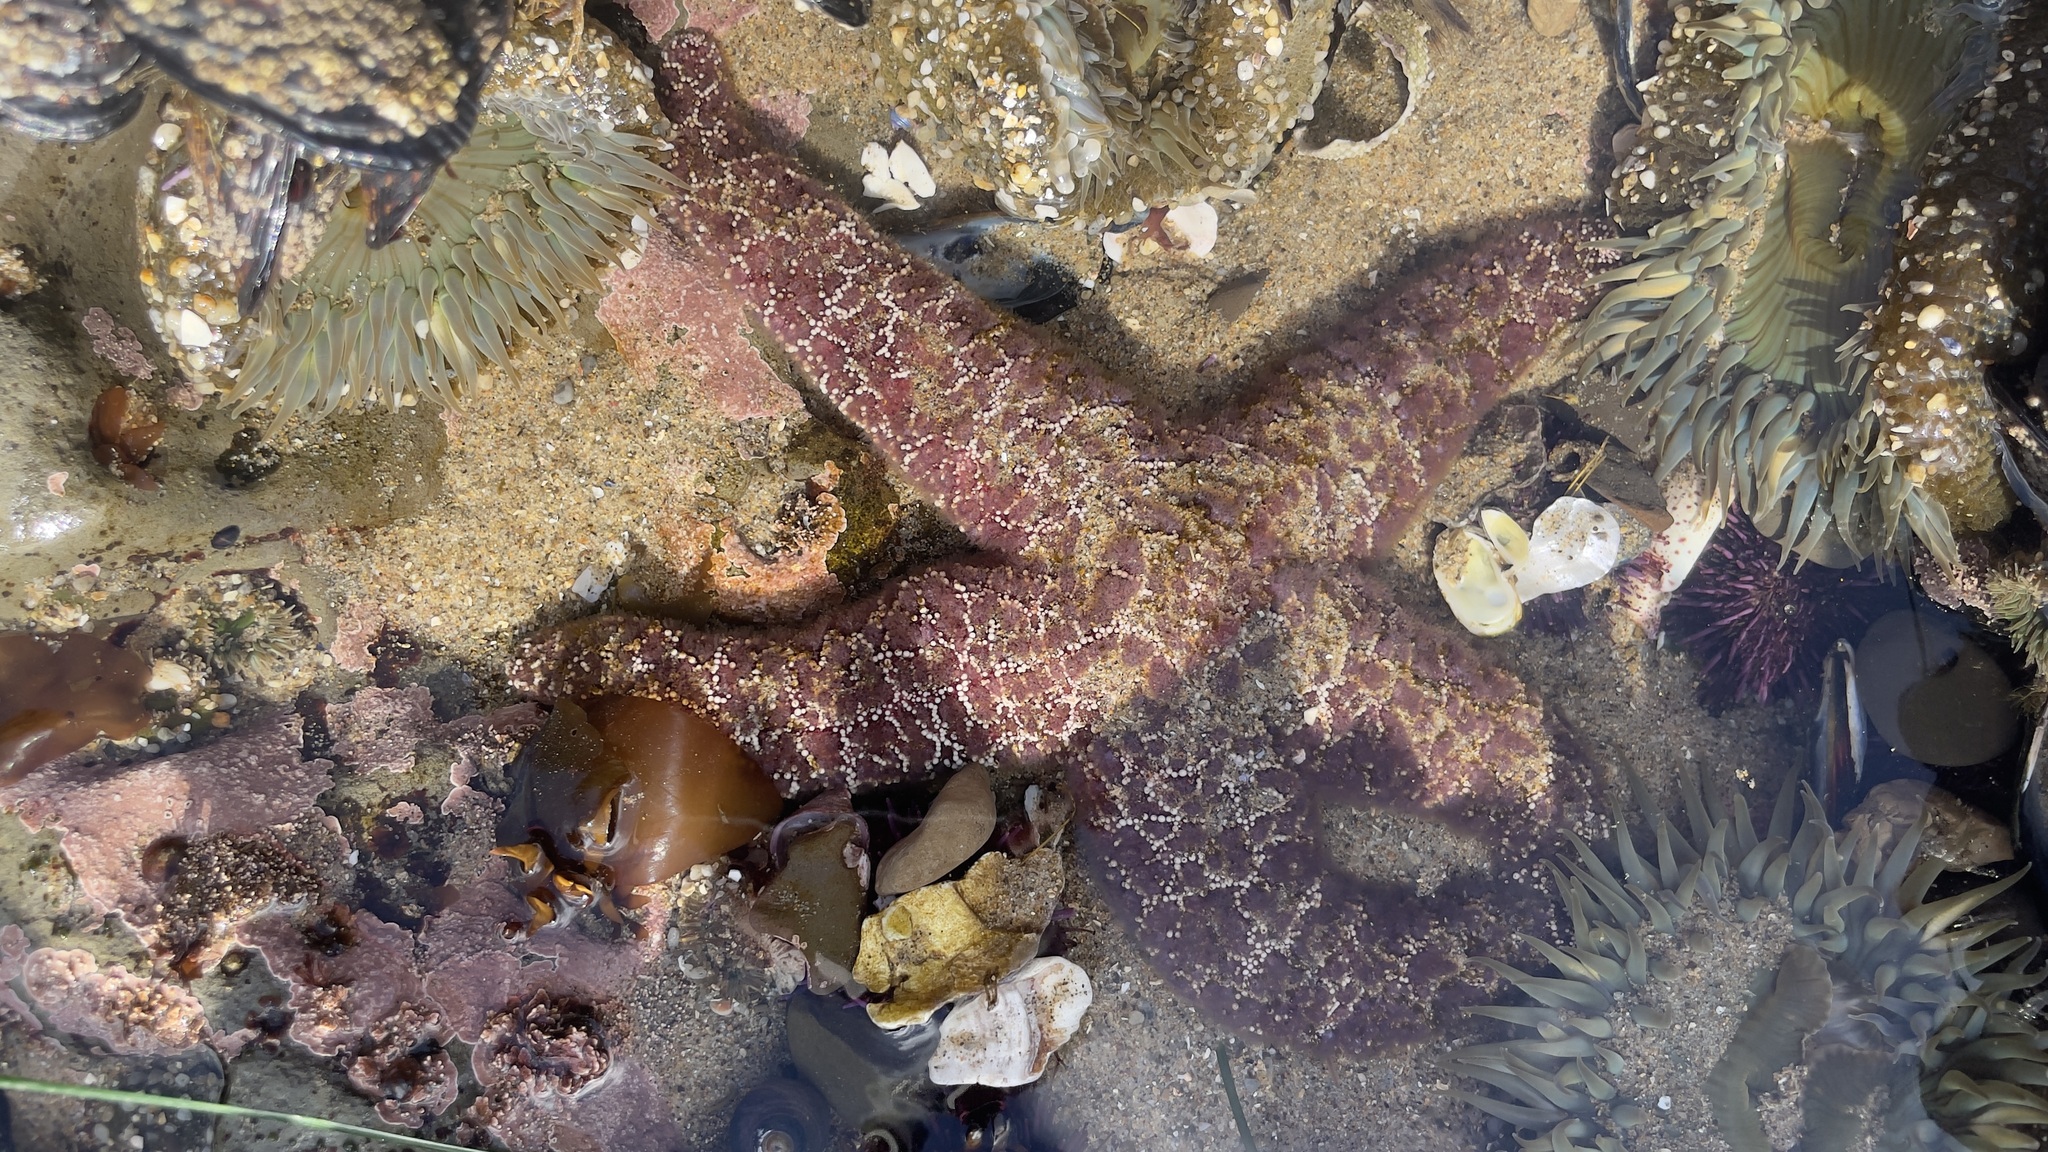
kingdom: Animalia
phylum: Echinodermata
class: Asteroidea
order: Forcipulatida
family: Asteriidae
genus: Pisaster
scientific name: Pisaster ochraceus
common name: Ochre stars
